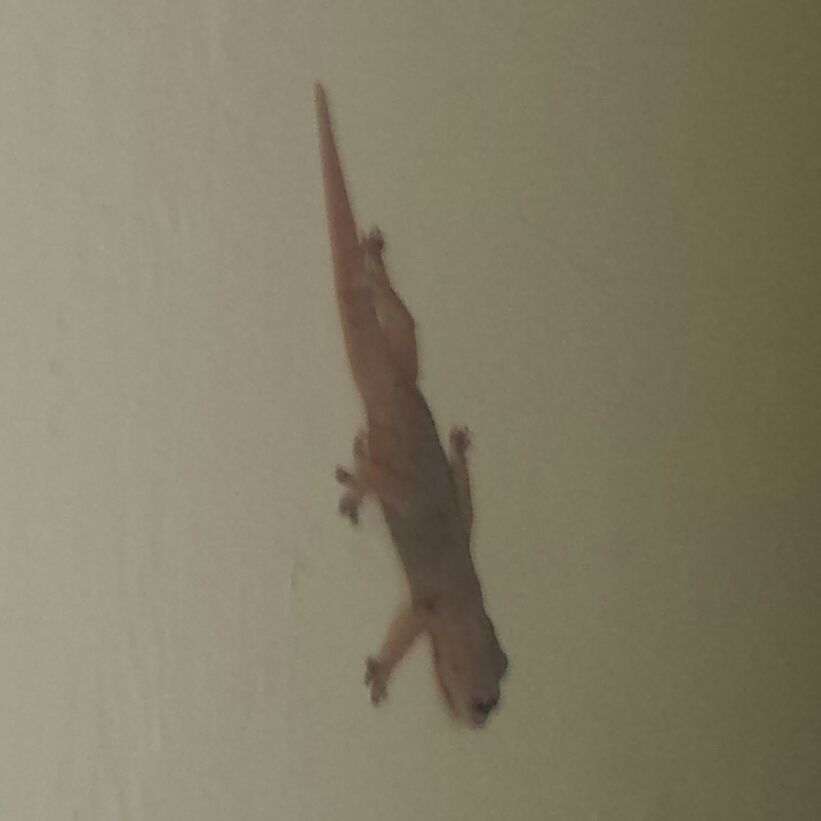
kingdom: Animalia
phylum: Chordata
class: Squamata
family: Gekkonidae
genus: Hemidactylus
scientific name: Hemidactylus frenatus
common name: Common house gecko
